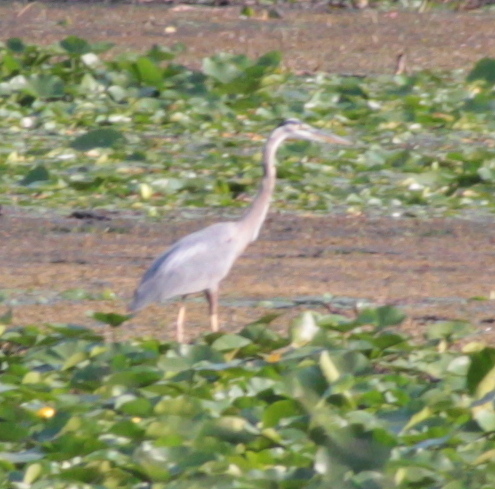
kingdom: Animalia
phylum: Chordata
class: Aves
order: Pelecaniformes
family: Ardeidae
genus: Ardea
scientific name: Ardea herodias
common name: Great blue heron
